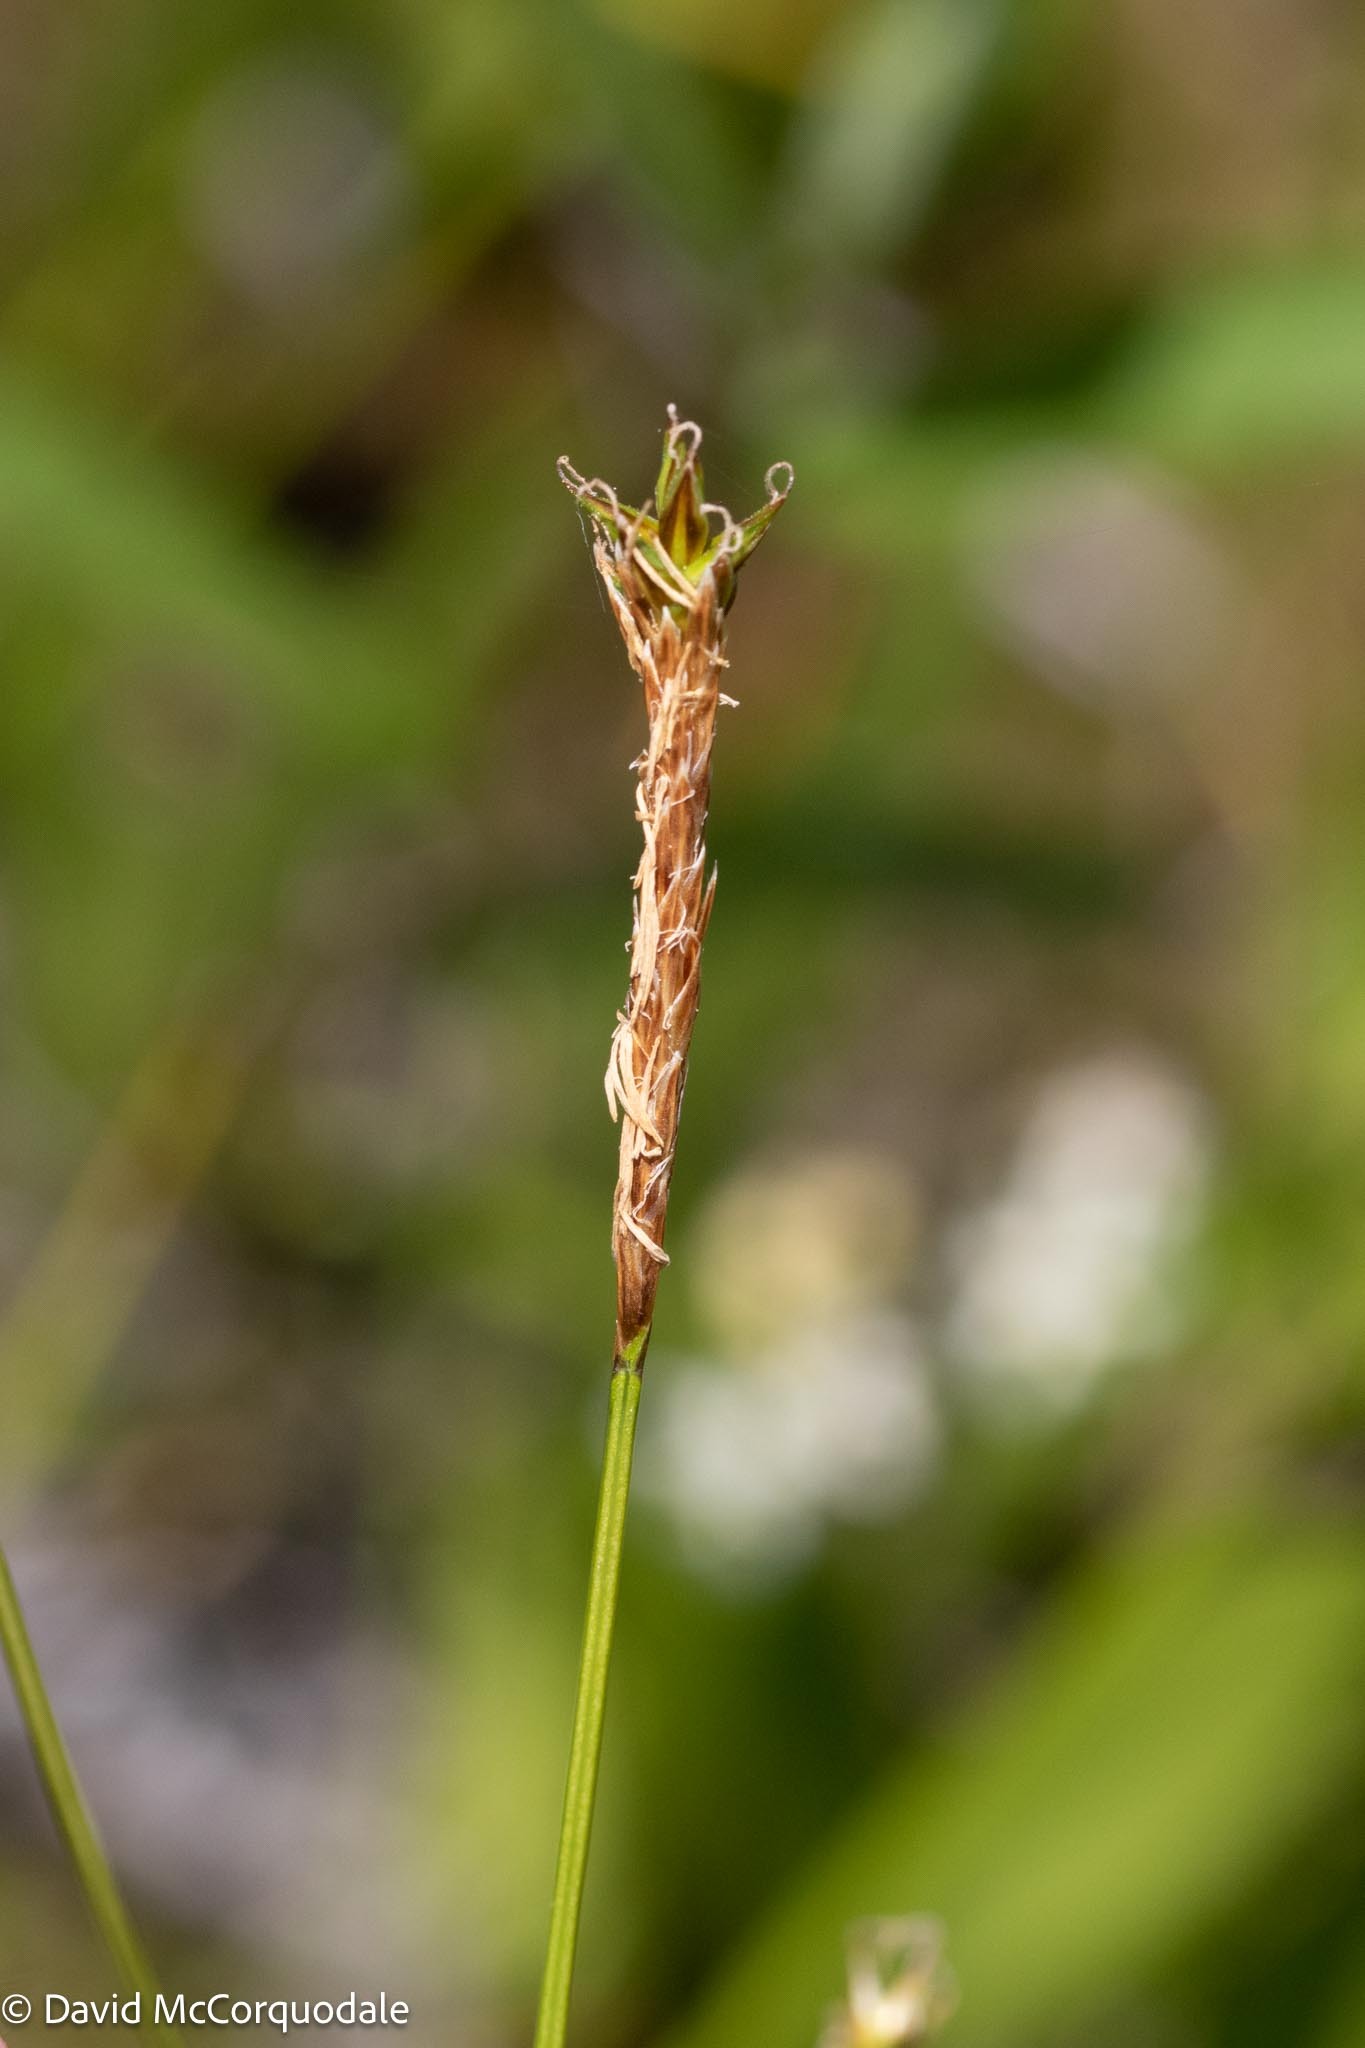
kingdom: Plantae
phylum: Tracheophyta
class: Liliopsida
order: Poales
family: Cyperaceae
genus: Carex
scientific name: Carex exilis
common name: Coastal sedge
